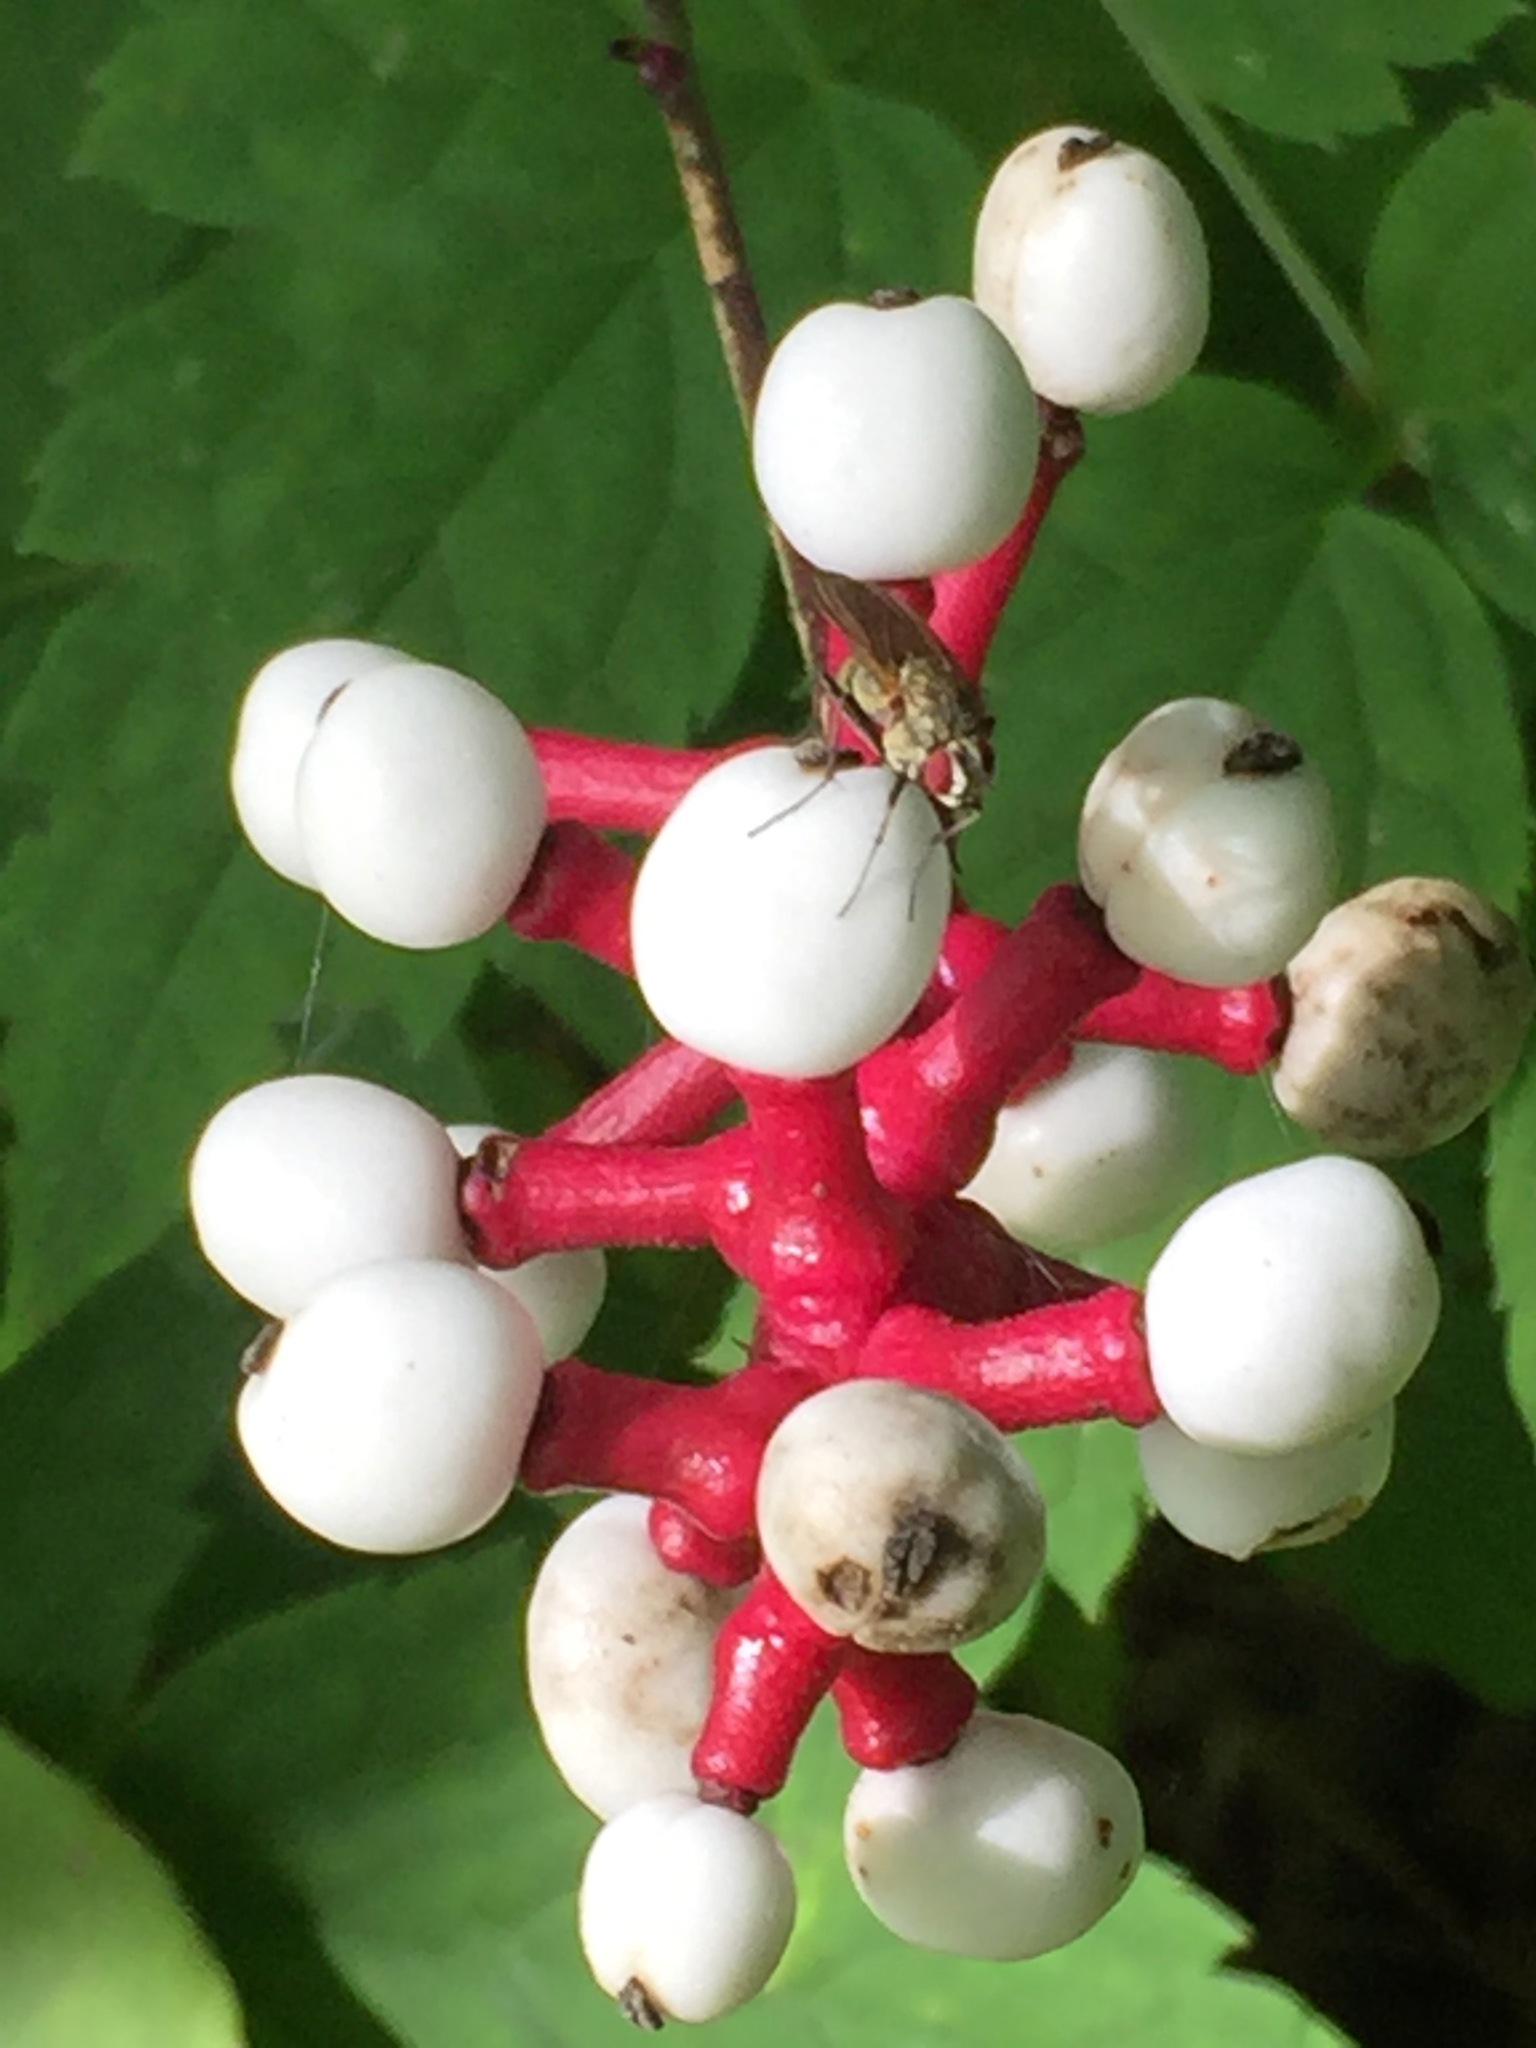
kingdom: Plantae
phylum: Tracheophyta
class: Magnoliopsida
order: Ranunculales
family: Ranunculaceae
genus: Actaea
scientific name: Actaea pachypoda
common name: Doll's-eyes
